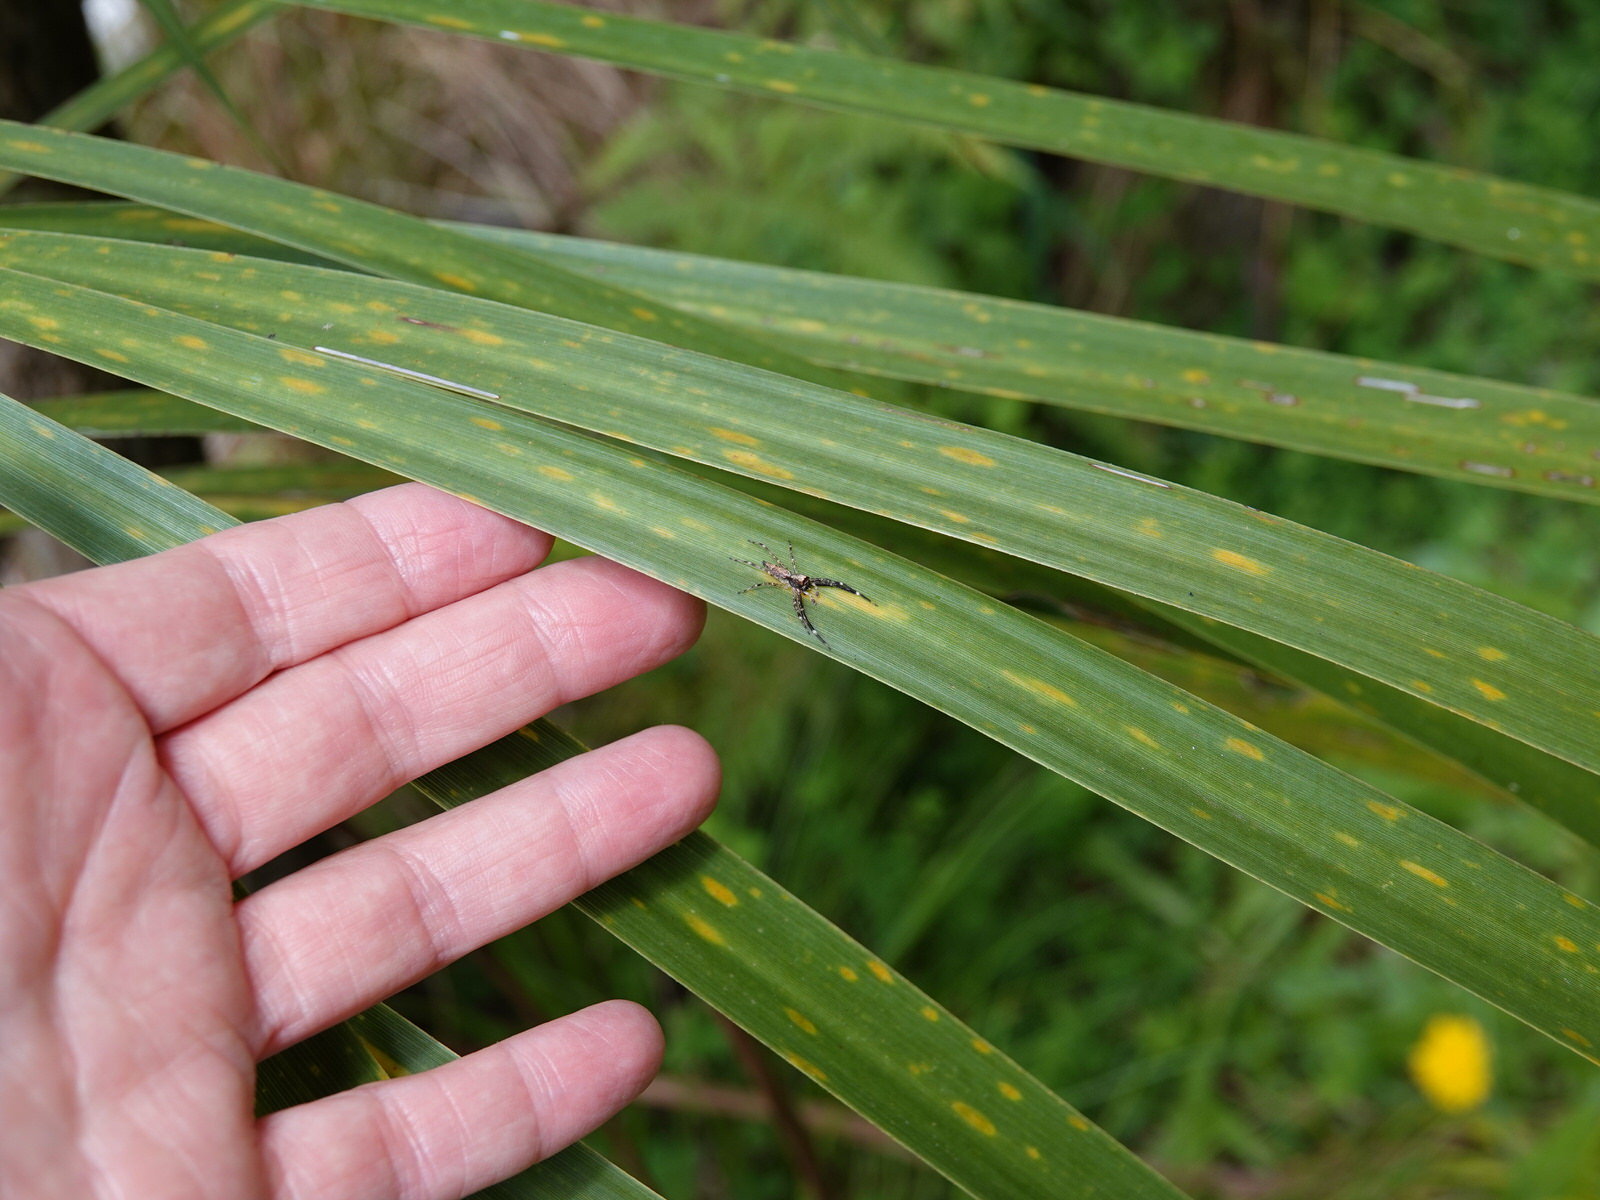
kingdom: Animalia
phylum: Arthropoda
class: Arachnida
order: Araneae
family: Salticidae
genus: Helpis
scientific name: Helpis minitabunda
